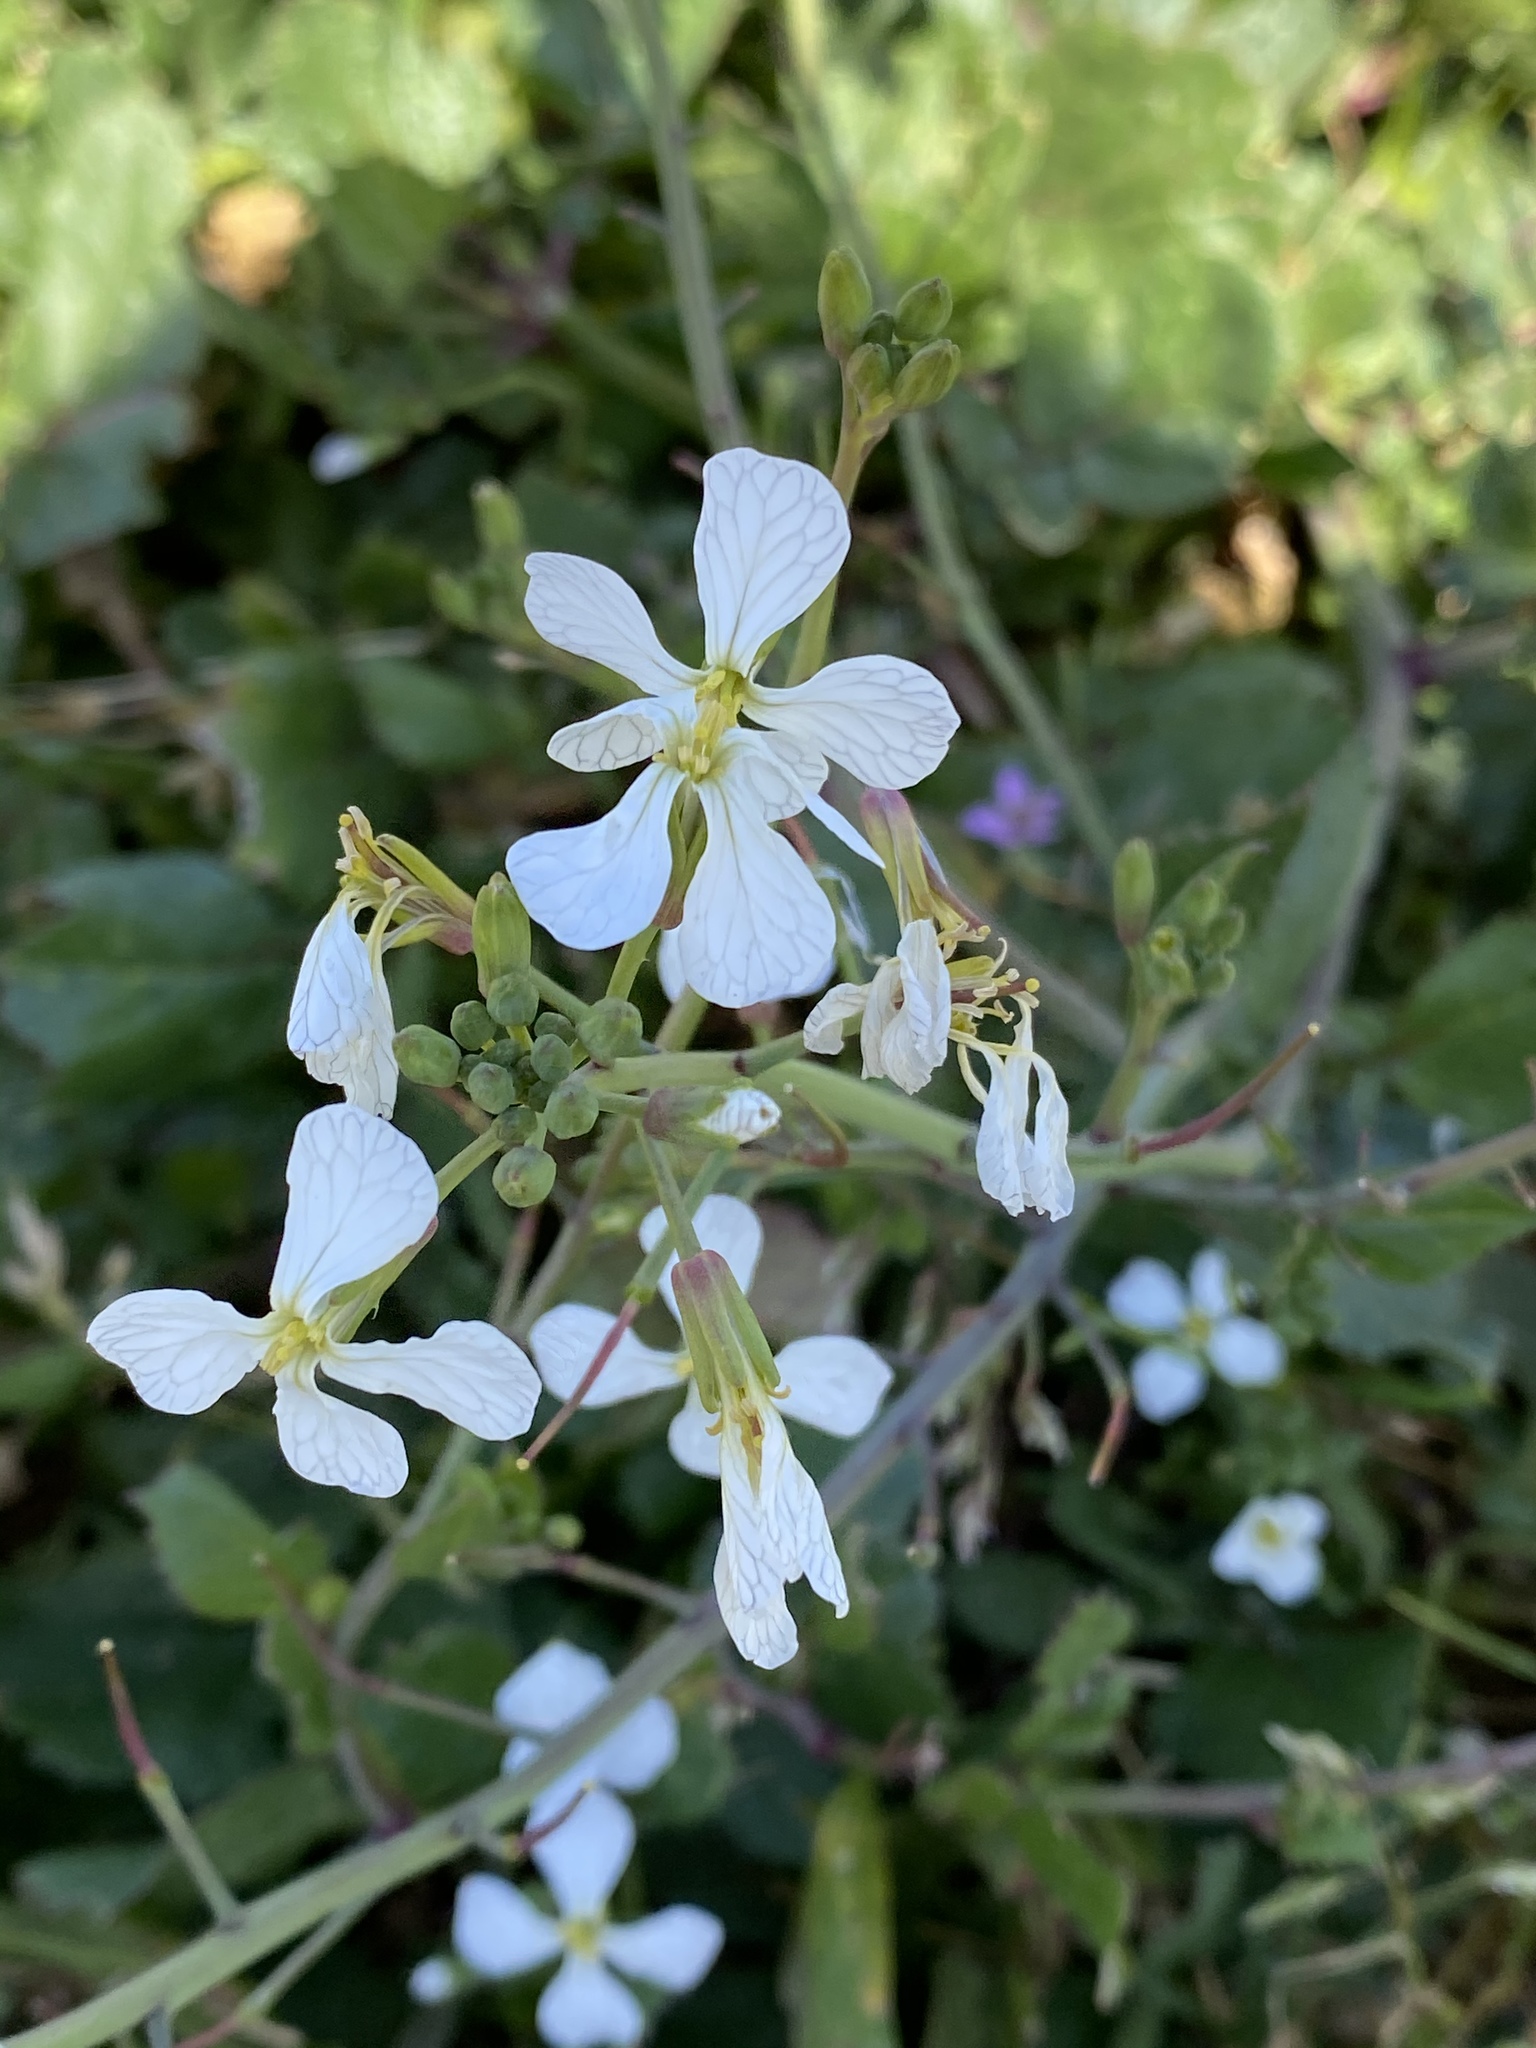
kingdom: Plantae
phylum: Tracheophyta
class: Magnoliopsida
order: Brassicales
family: Brassicaceae
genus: Raphanus
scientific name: Raphanus sativus
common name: Cultivated radish
